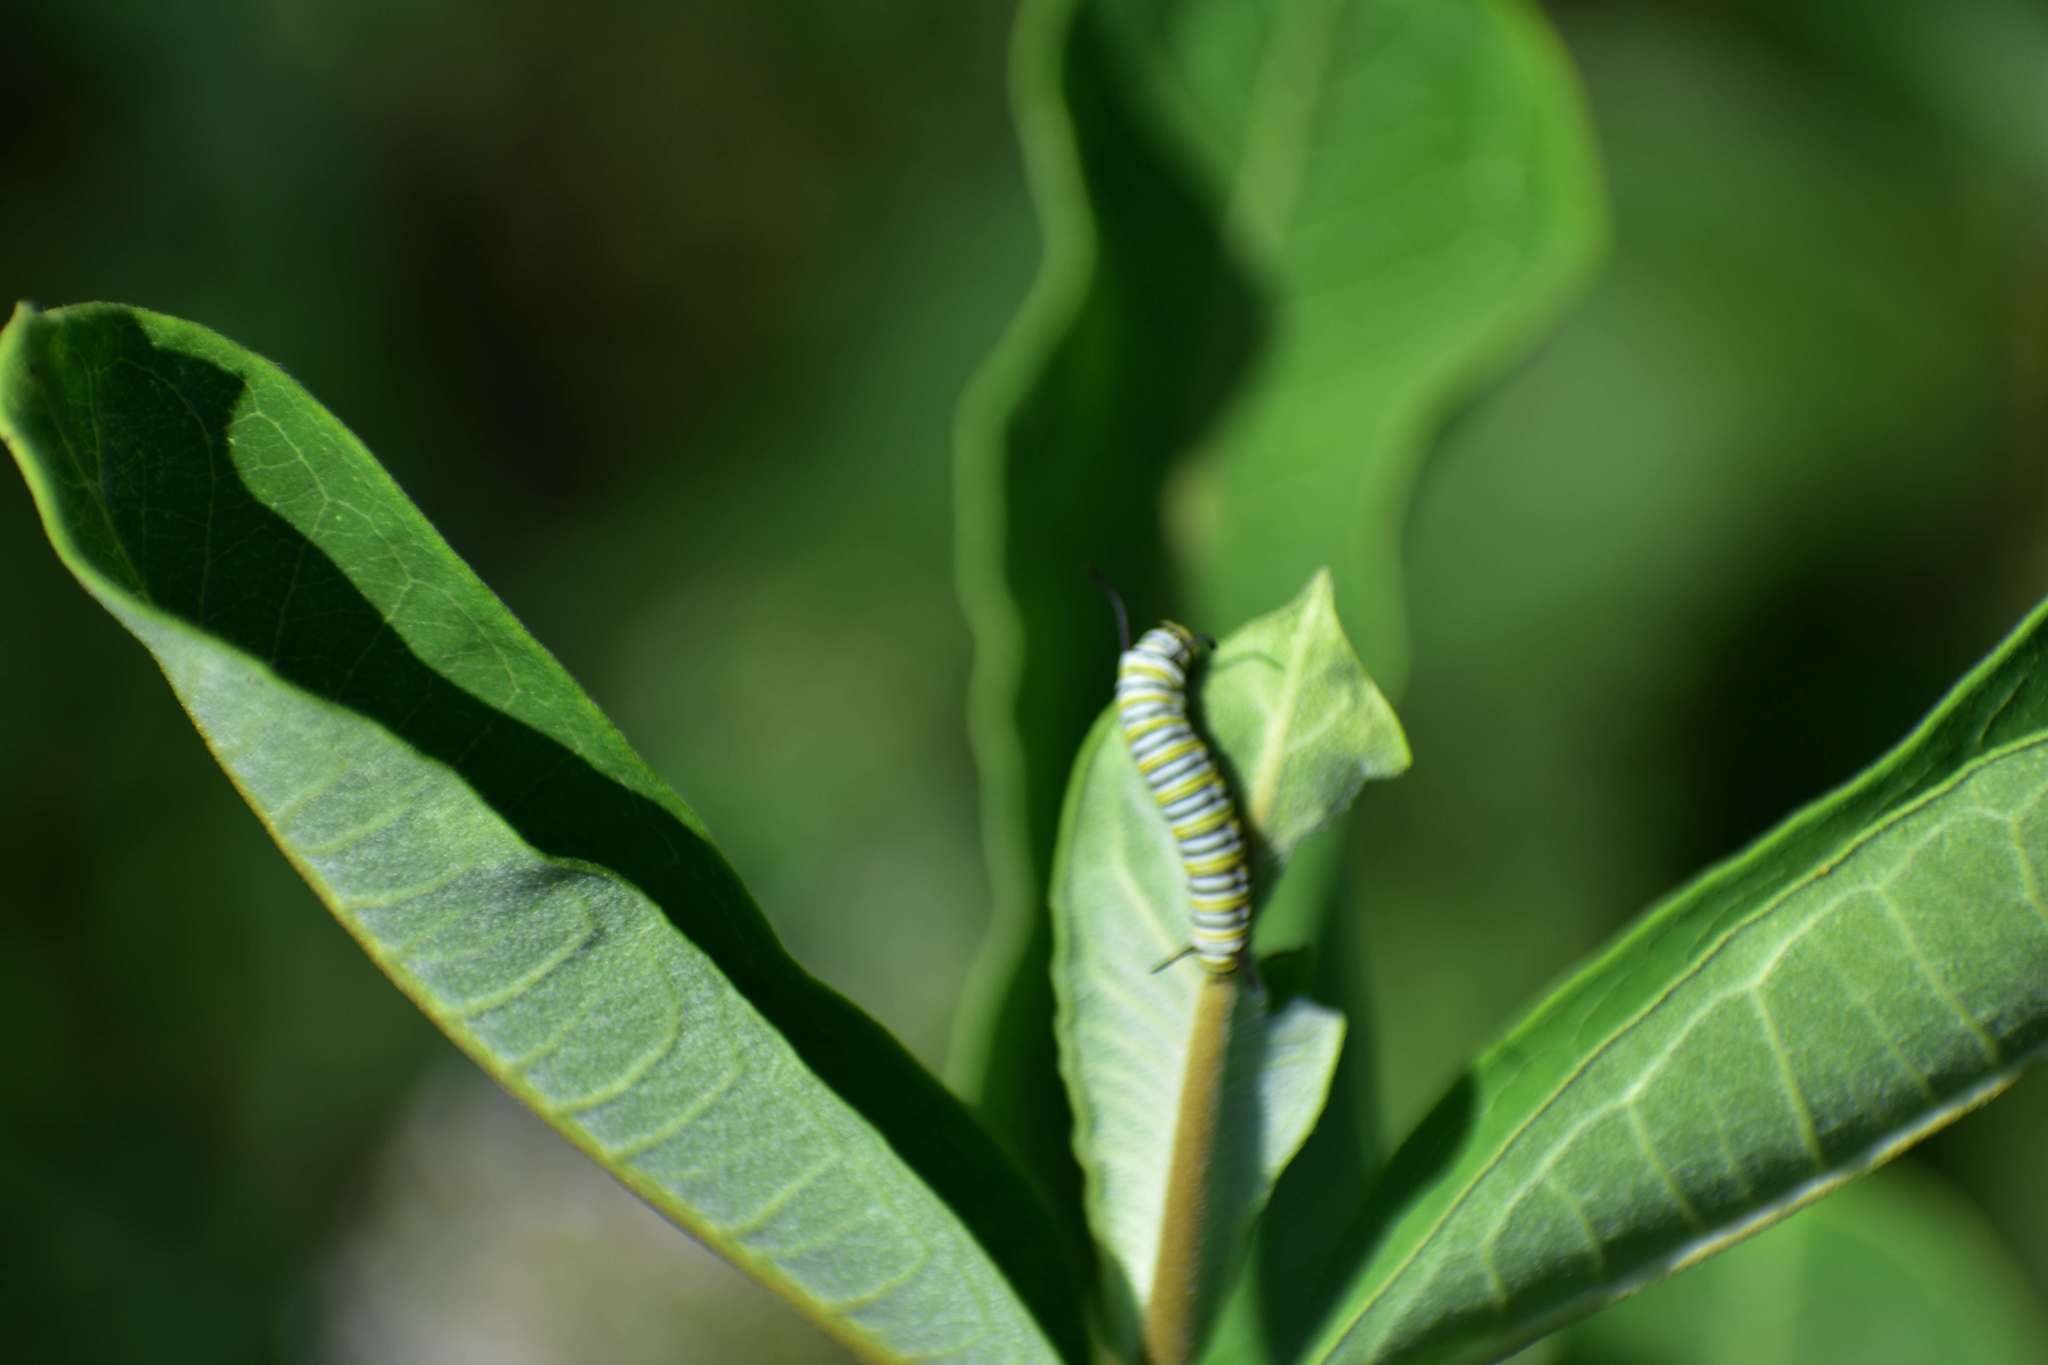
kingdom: Animalia
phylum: Arthropoda
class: Insecta
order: Lepidoptera
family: Nymphalidae
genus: Danaus
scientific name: Danaus plexippus
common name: Monarch
